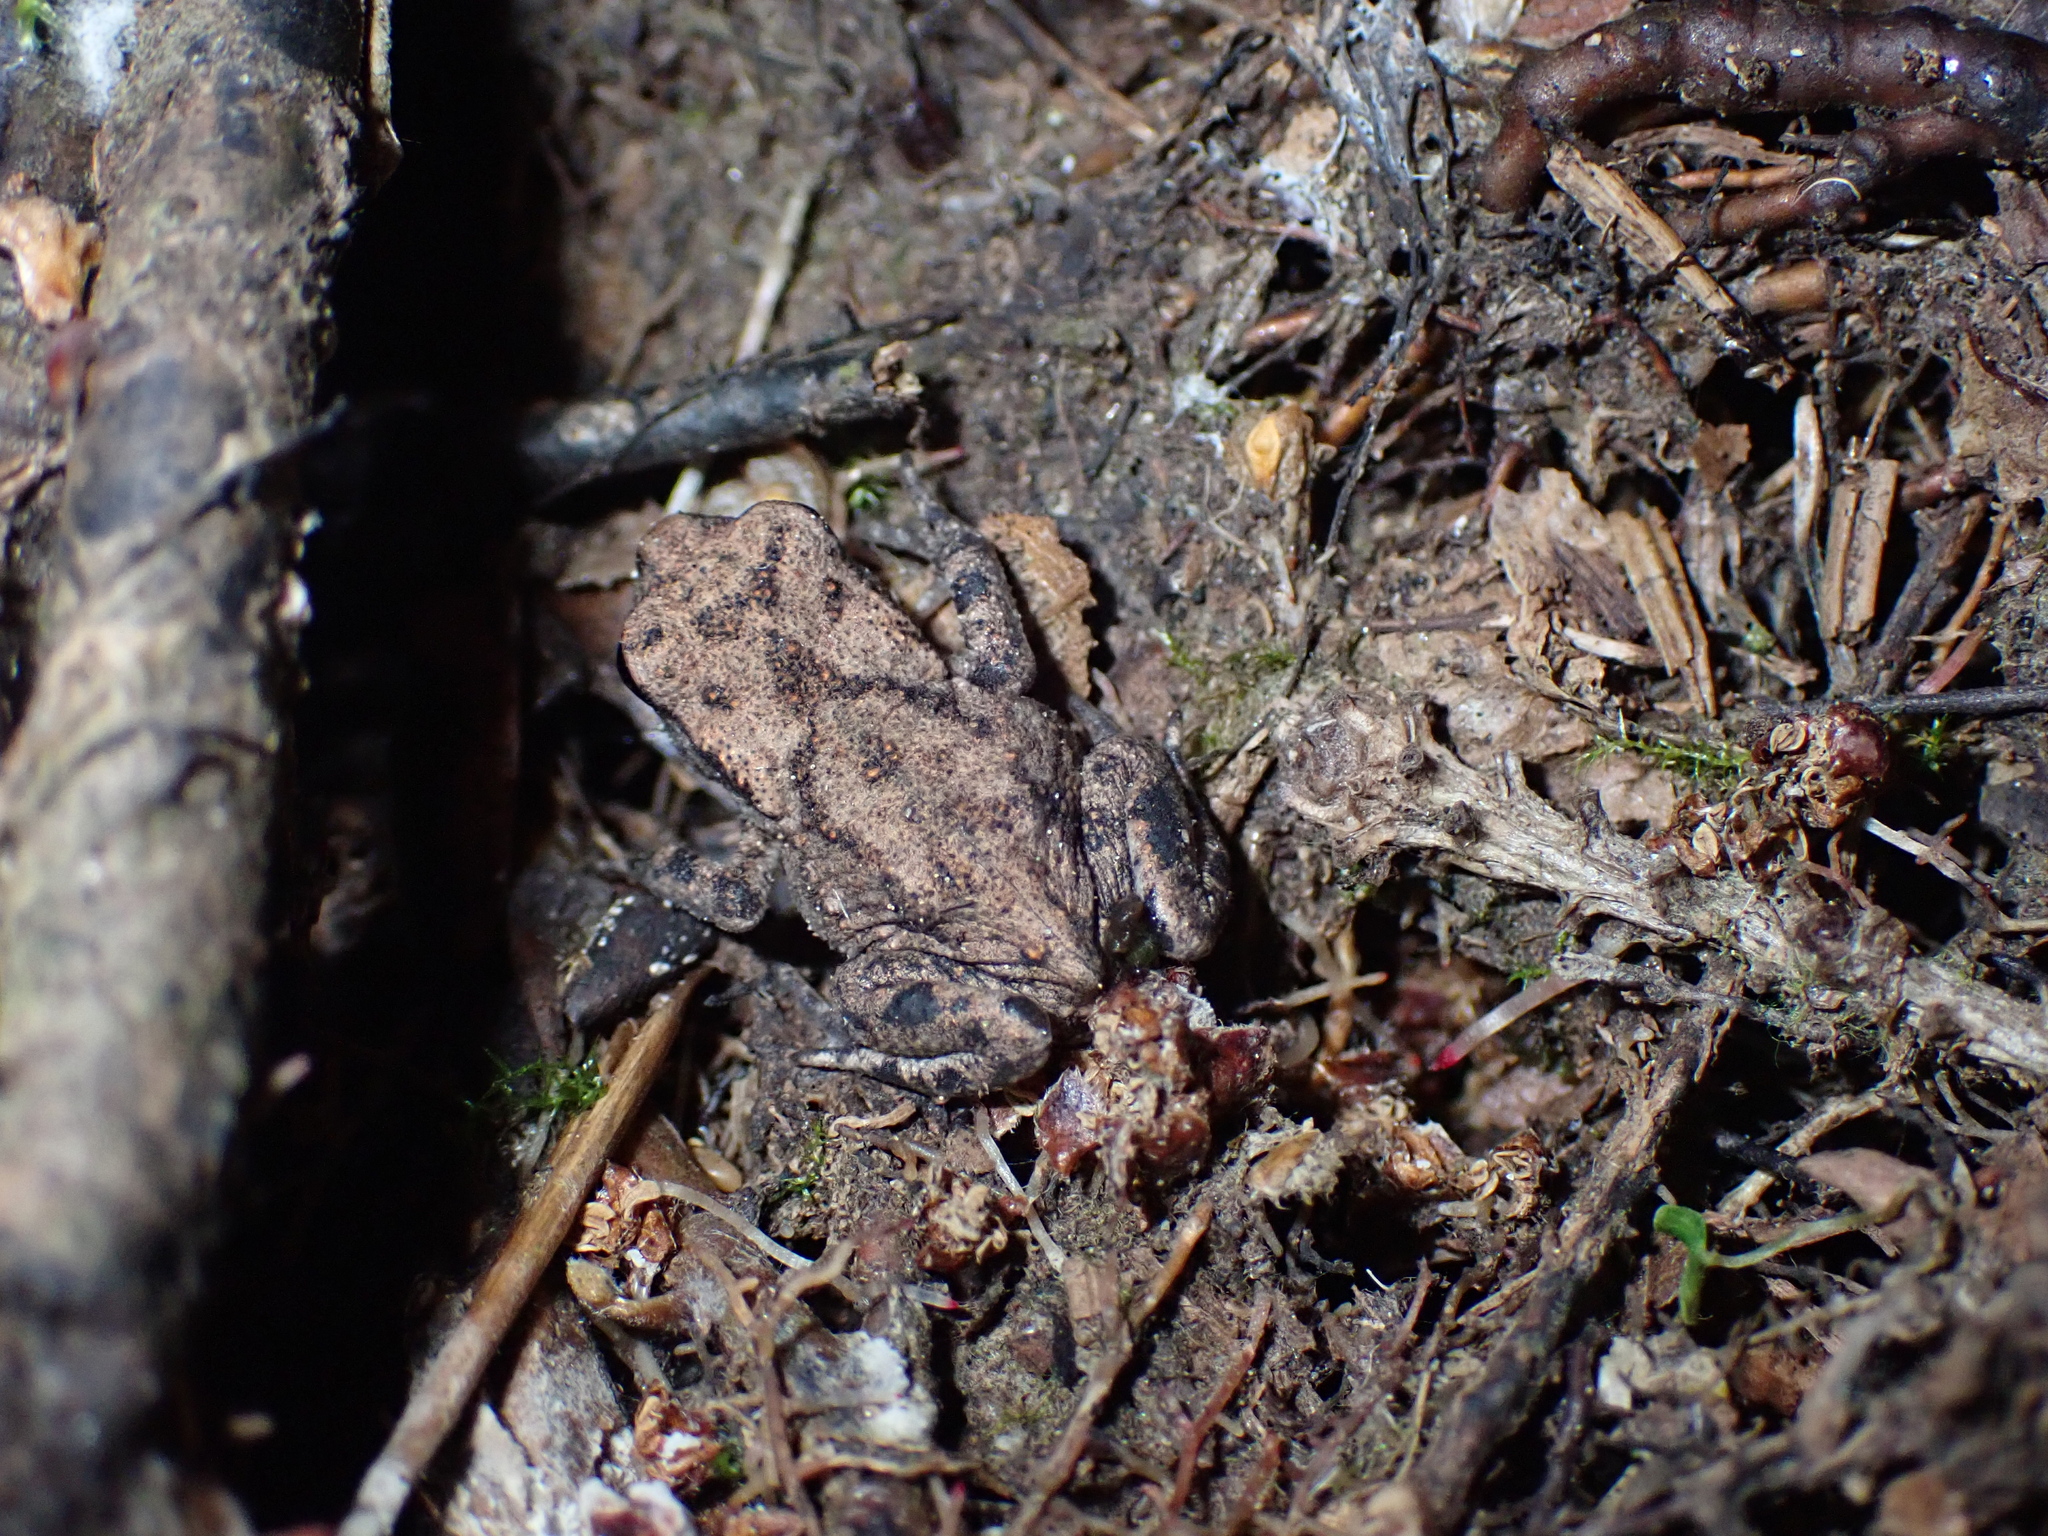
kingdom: Animalia
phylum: Chordata
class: Amphibia
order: Anura
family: Bufonidae
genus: Bufo
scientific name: Bufo bufo
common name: Common toad
